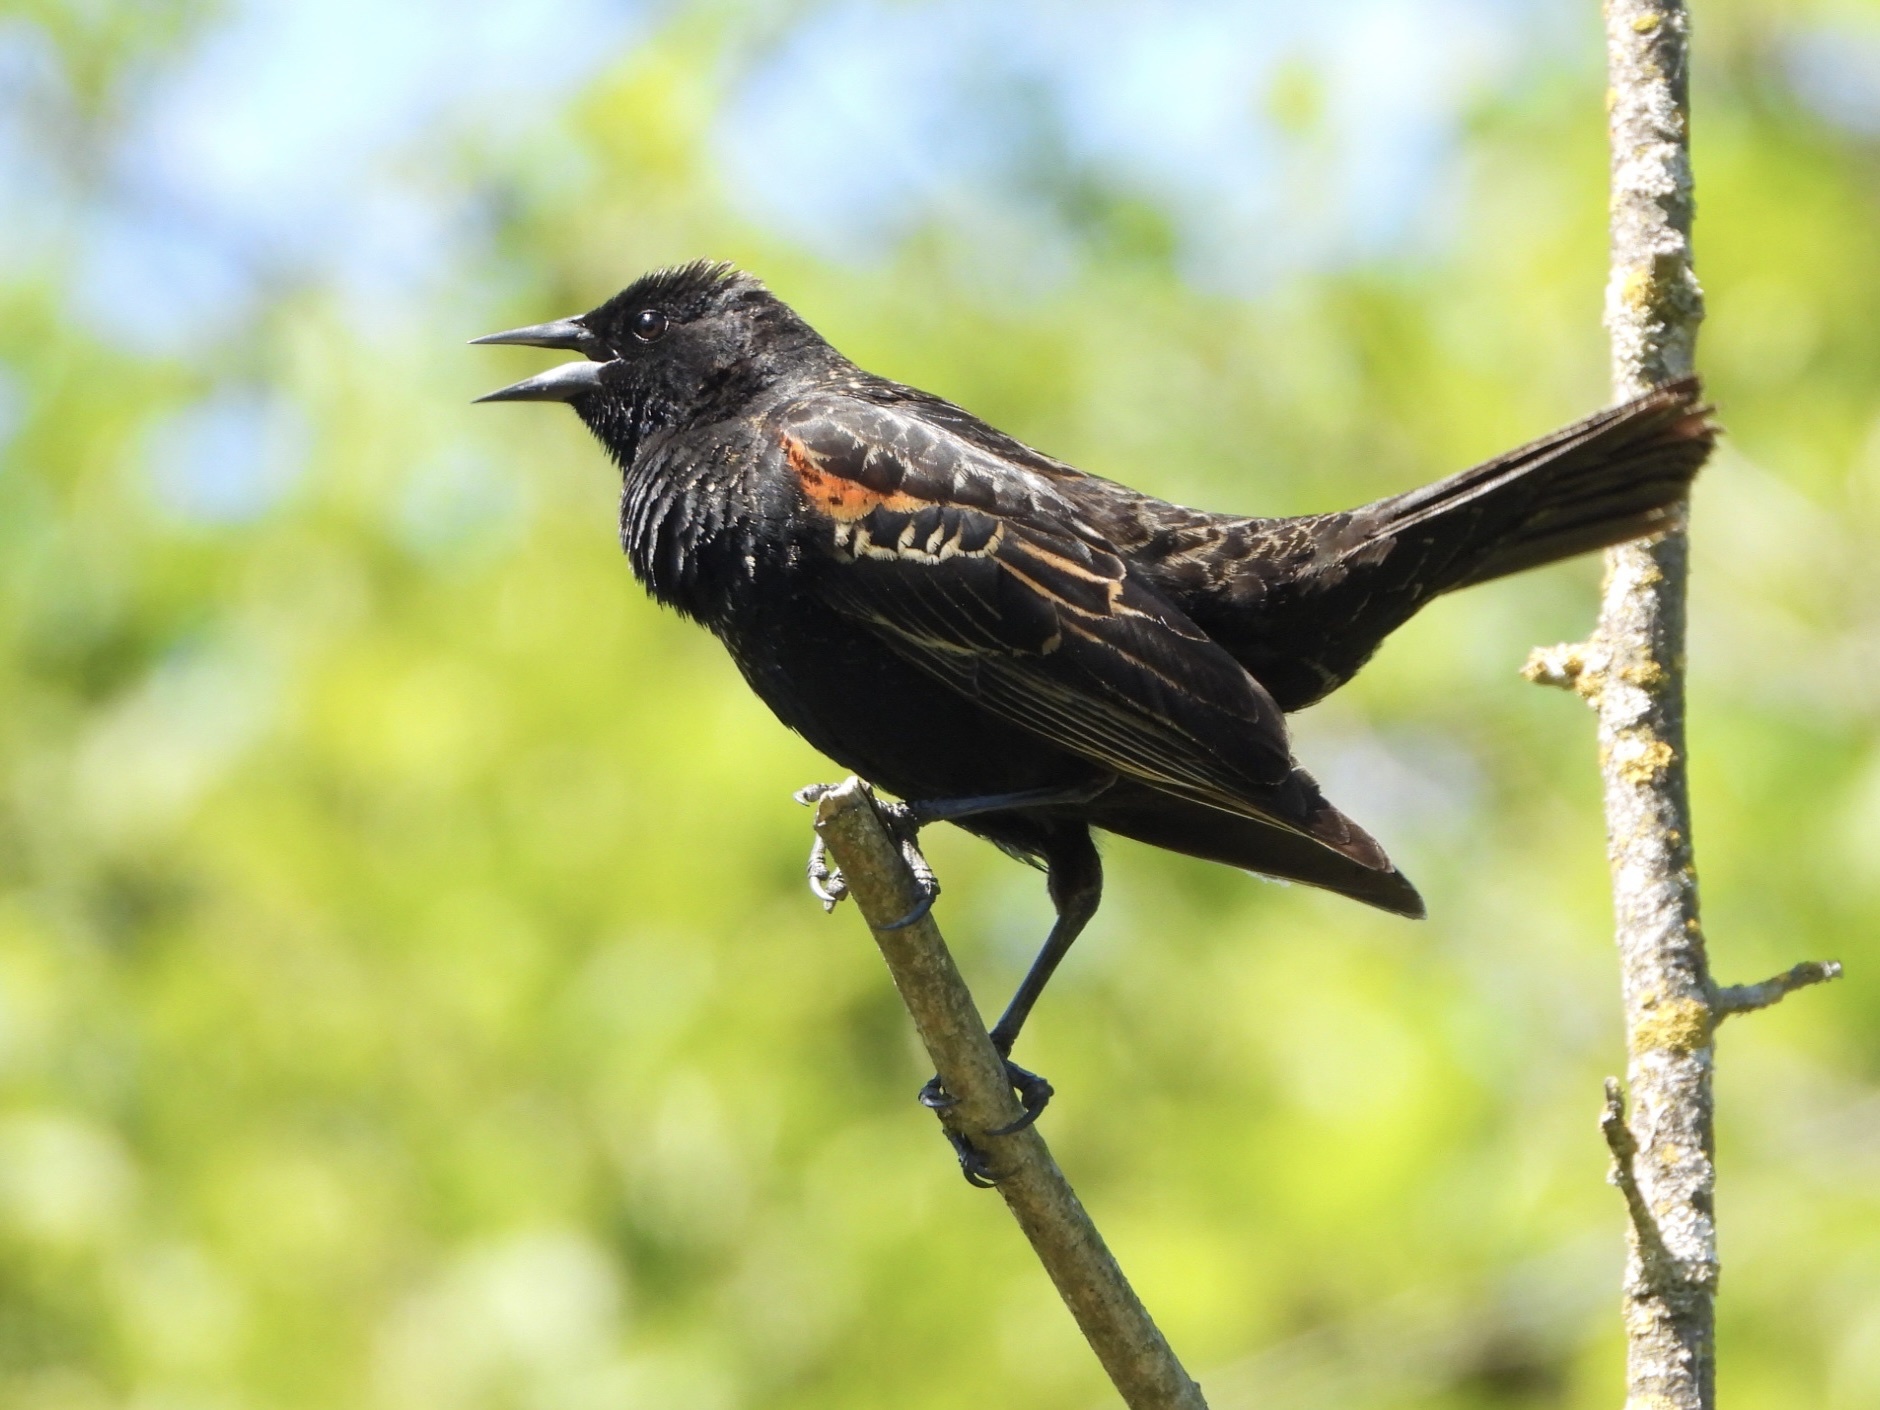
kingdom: Animalia
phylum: Chordata
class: Aves
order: Passeriformes
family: Icteridae
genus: Agelaius
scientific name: Agelaius phoeniceus
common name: Red-winged blackbird
